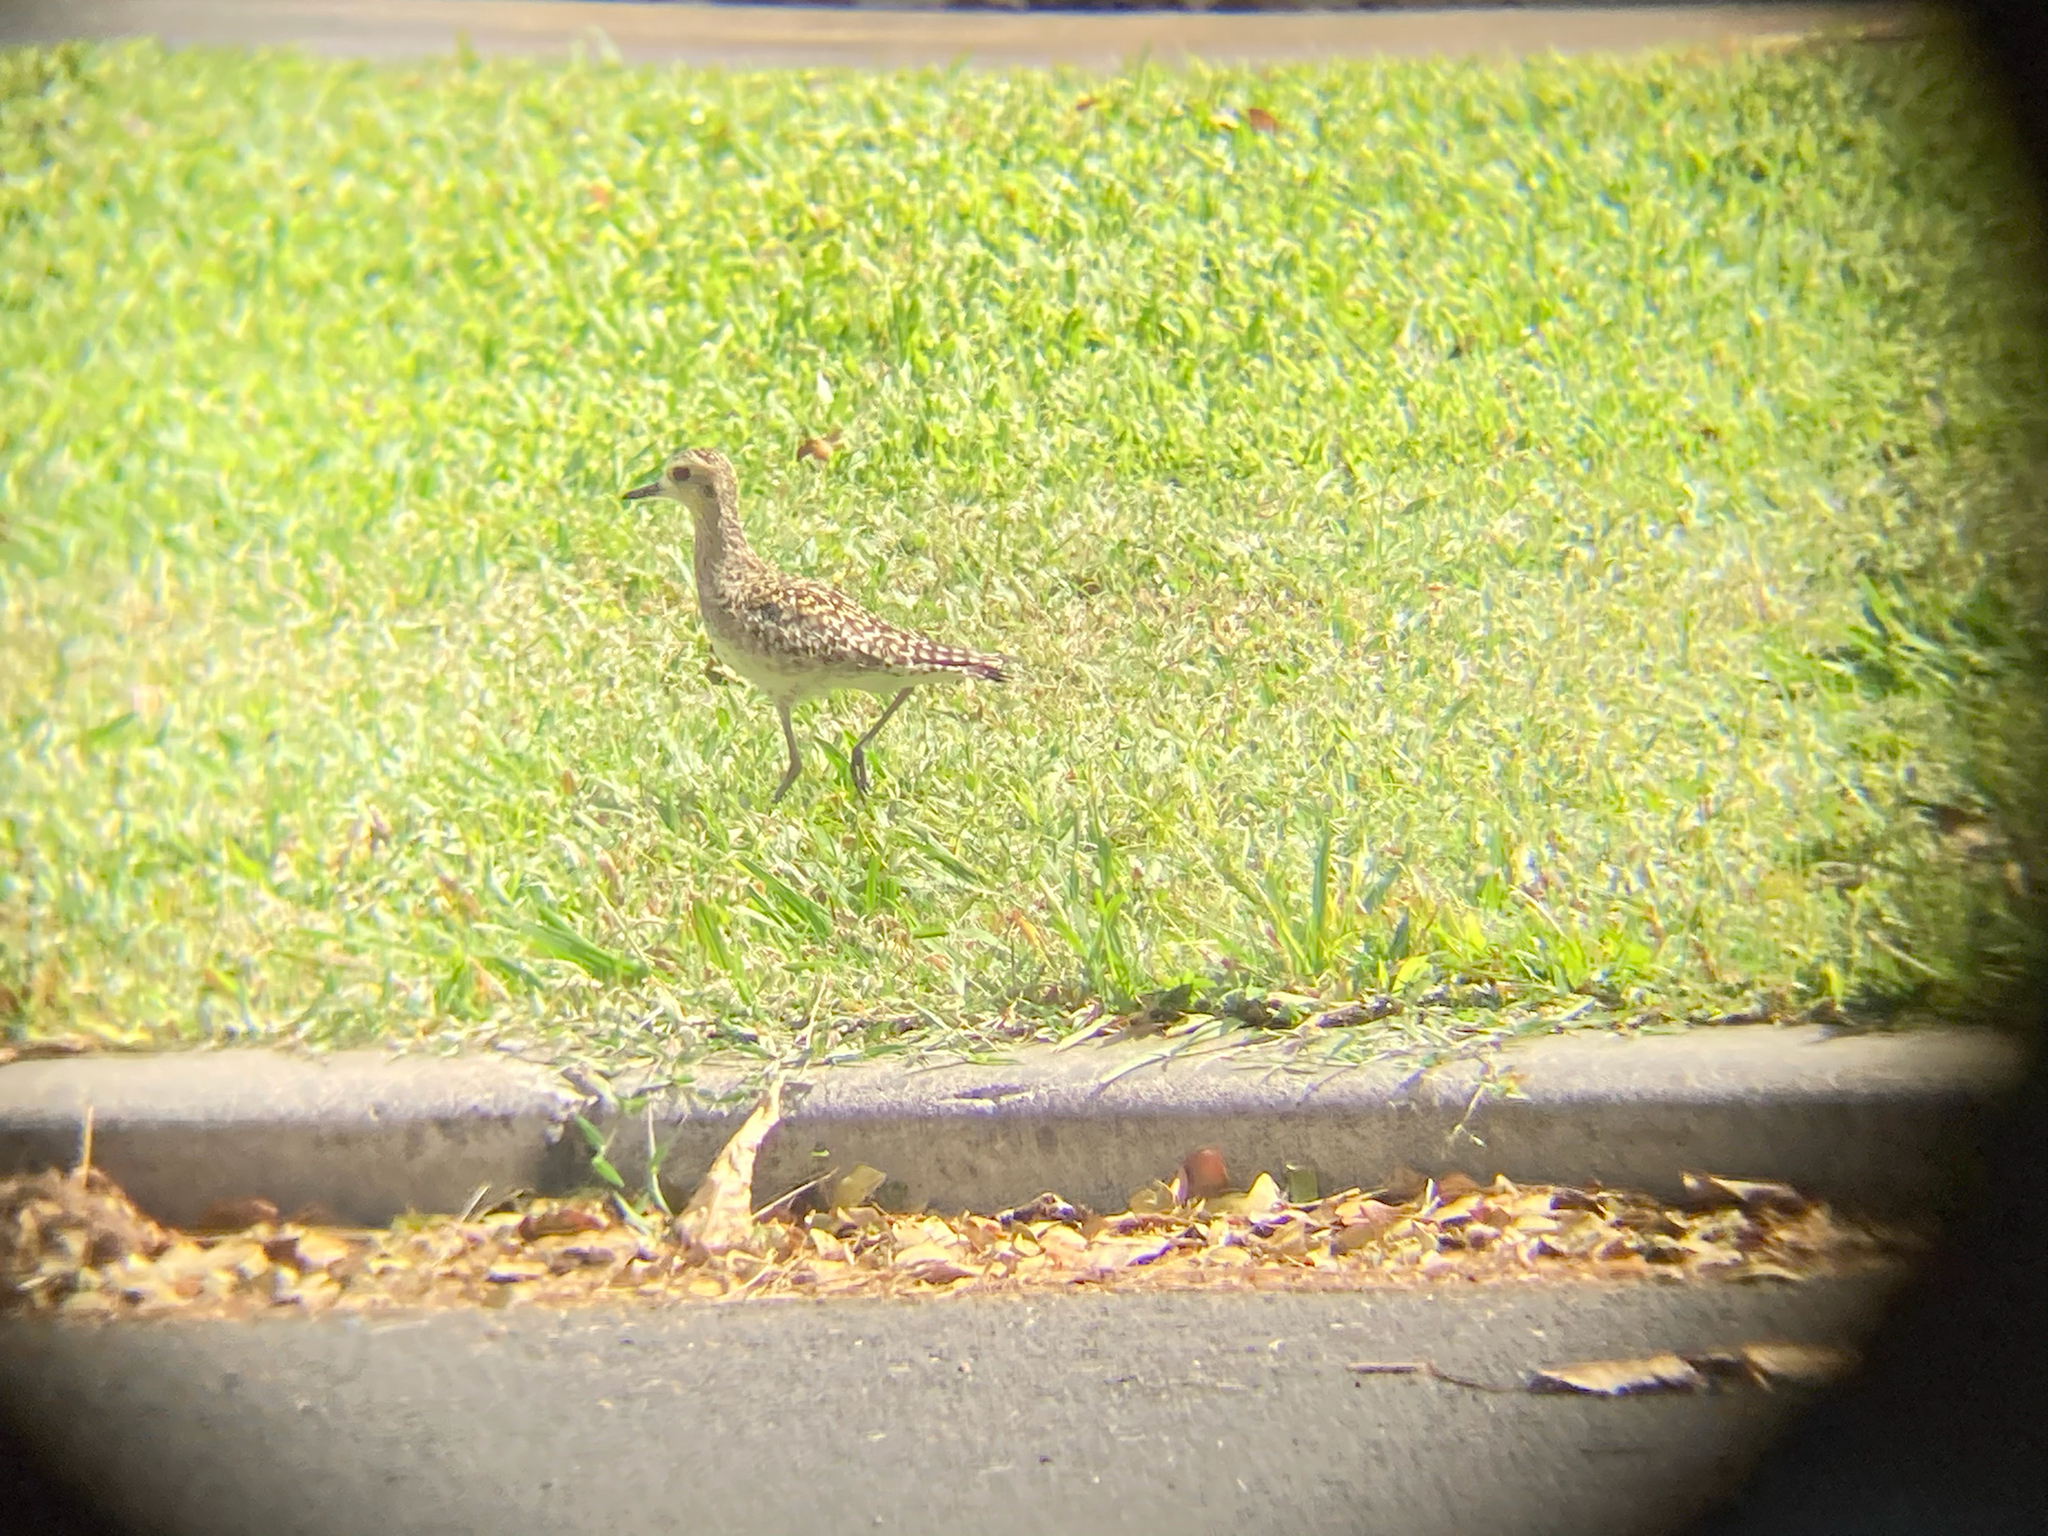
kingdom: Animalia
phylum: Chordata
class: Aves
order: Charadriiformes
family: Charadriidae
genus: Pluvialis
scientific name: Pluvialis fulva
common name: Pacific golden plover
